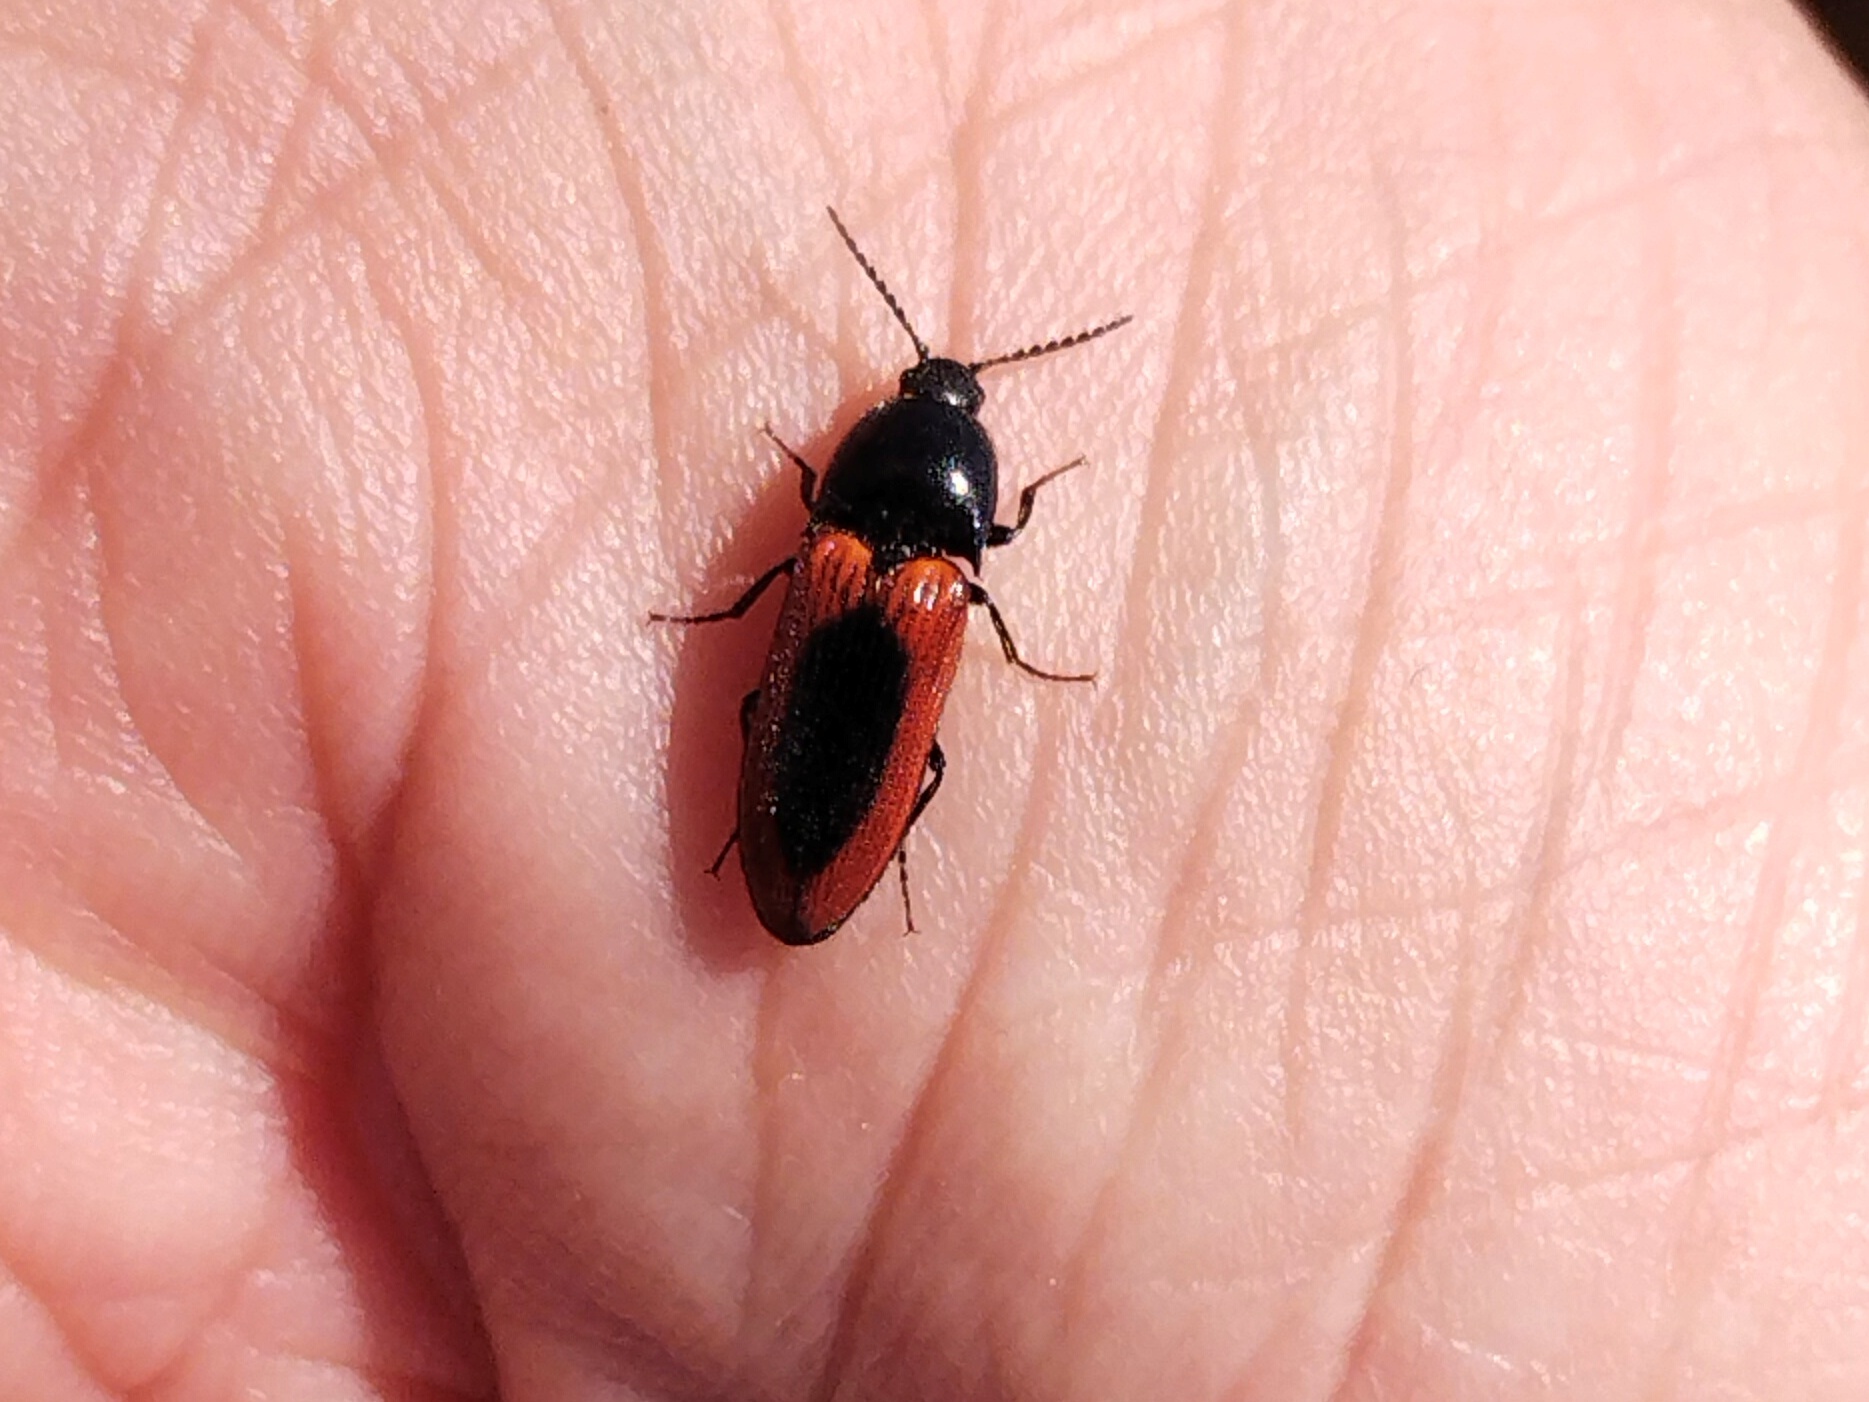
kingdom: Animalia
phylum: Arthropoda
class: Insecta
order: Coleoptera
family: Elateridae
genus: Ampedus
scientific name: Ampedus sanguinolentus
